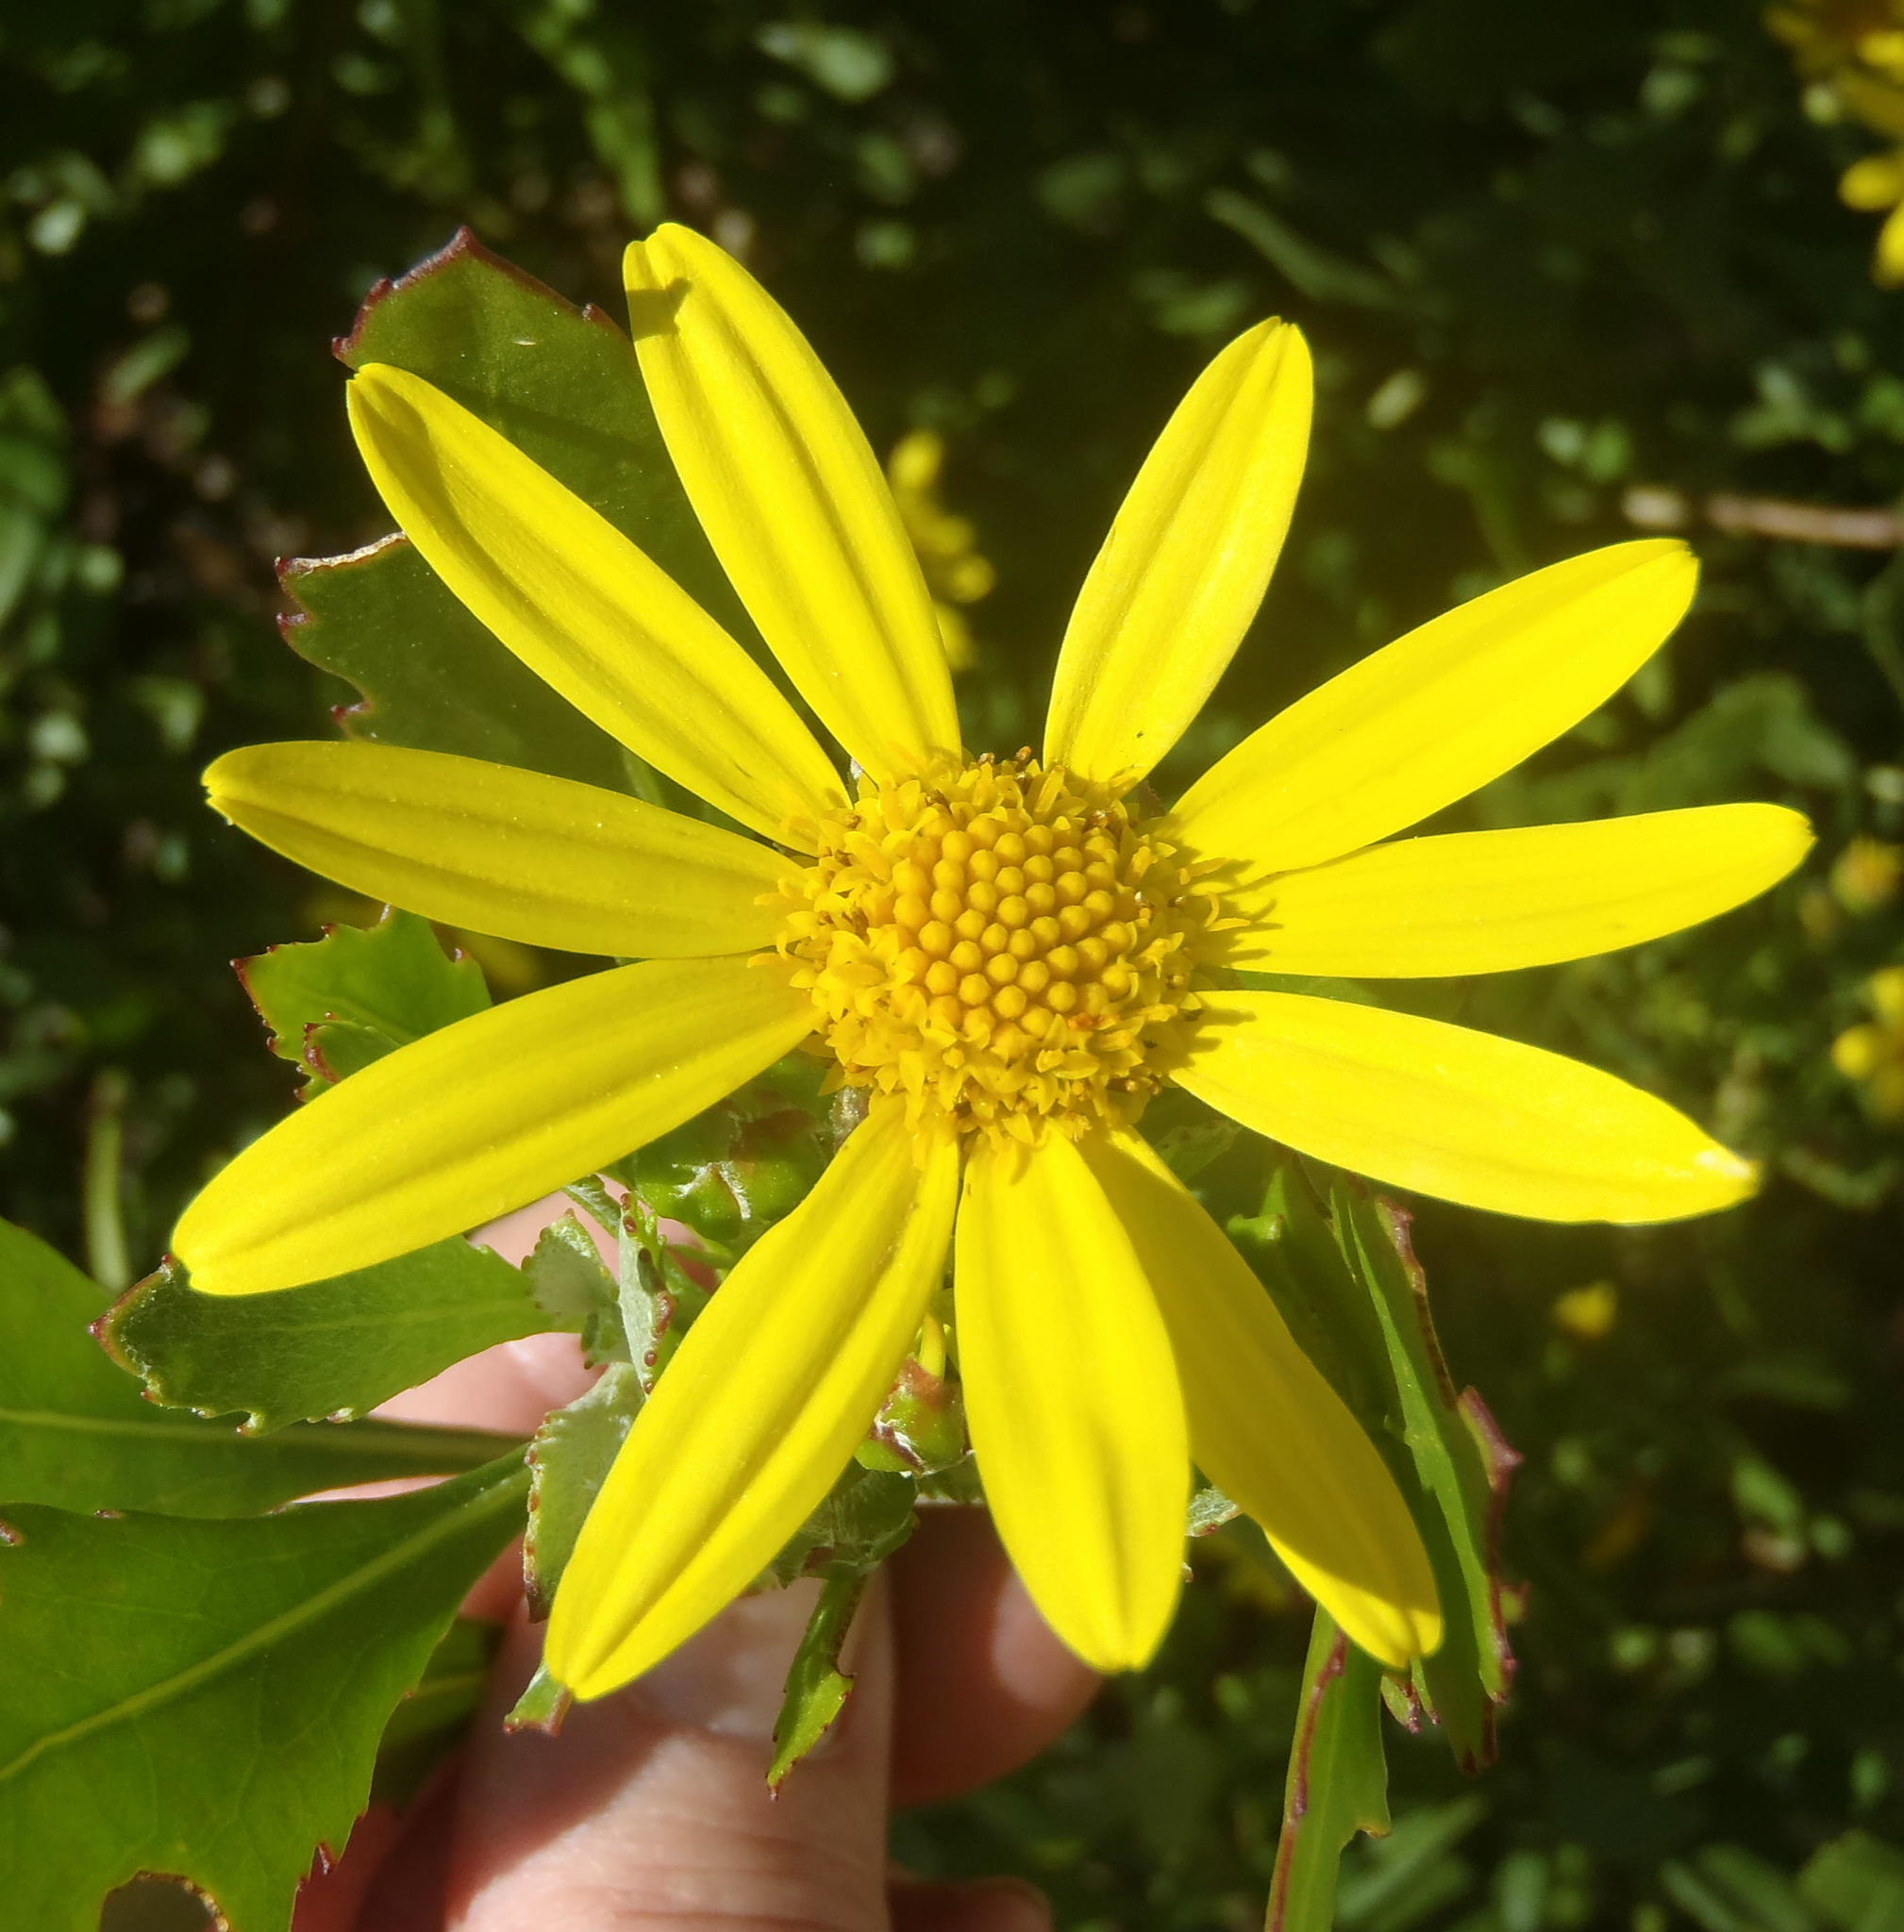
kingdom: Plantae
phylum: Tracheophyta
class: Magnoliopsida
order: Asterales
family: Asteraceae
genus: Osteospermum
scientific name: Osteospermum moniliferum
